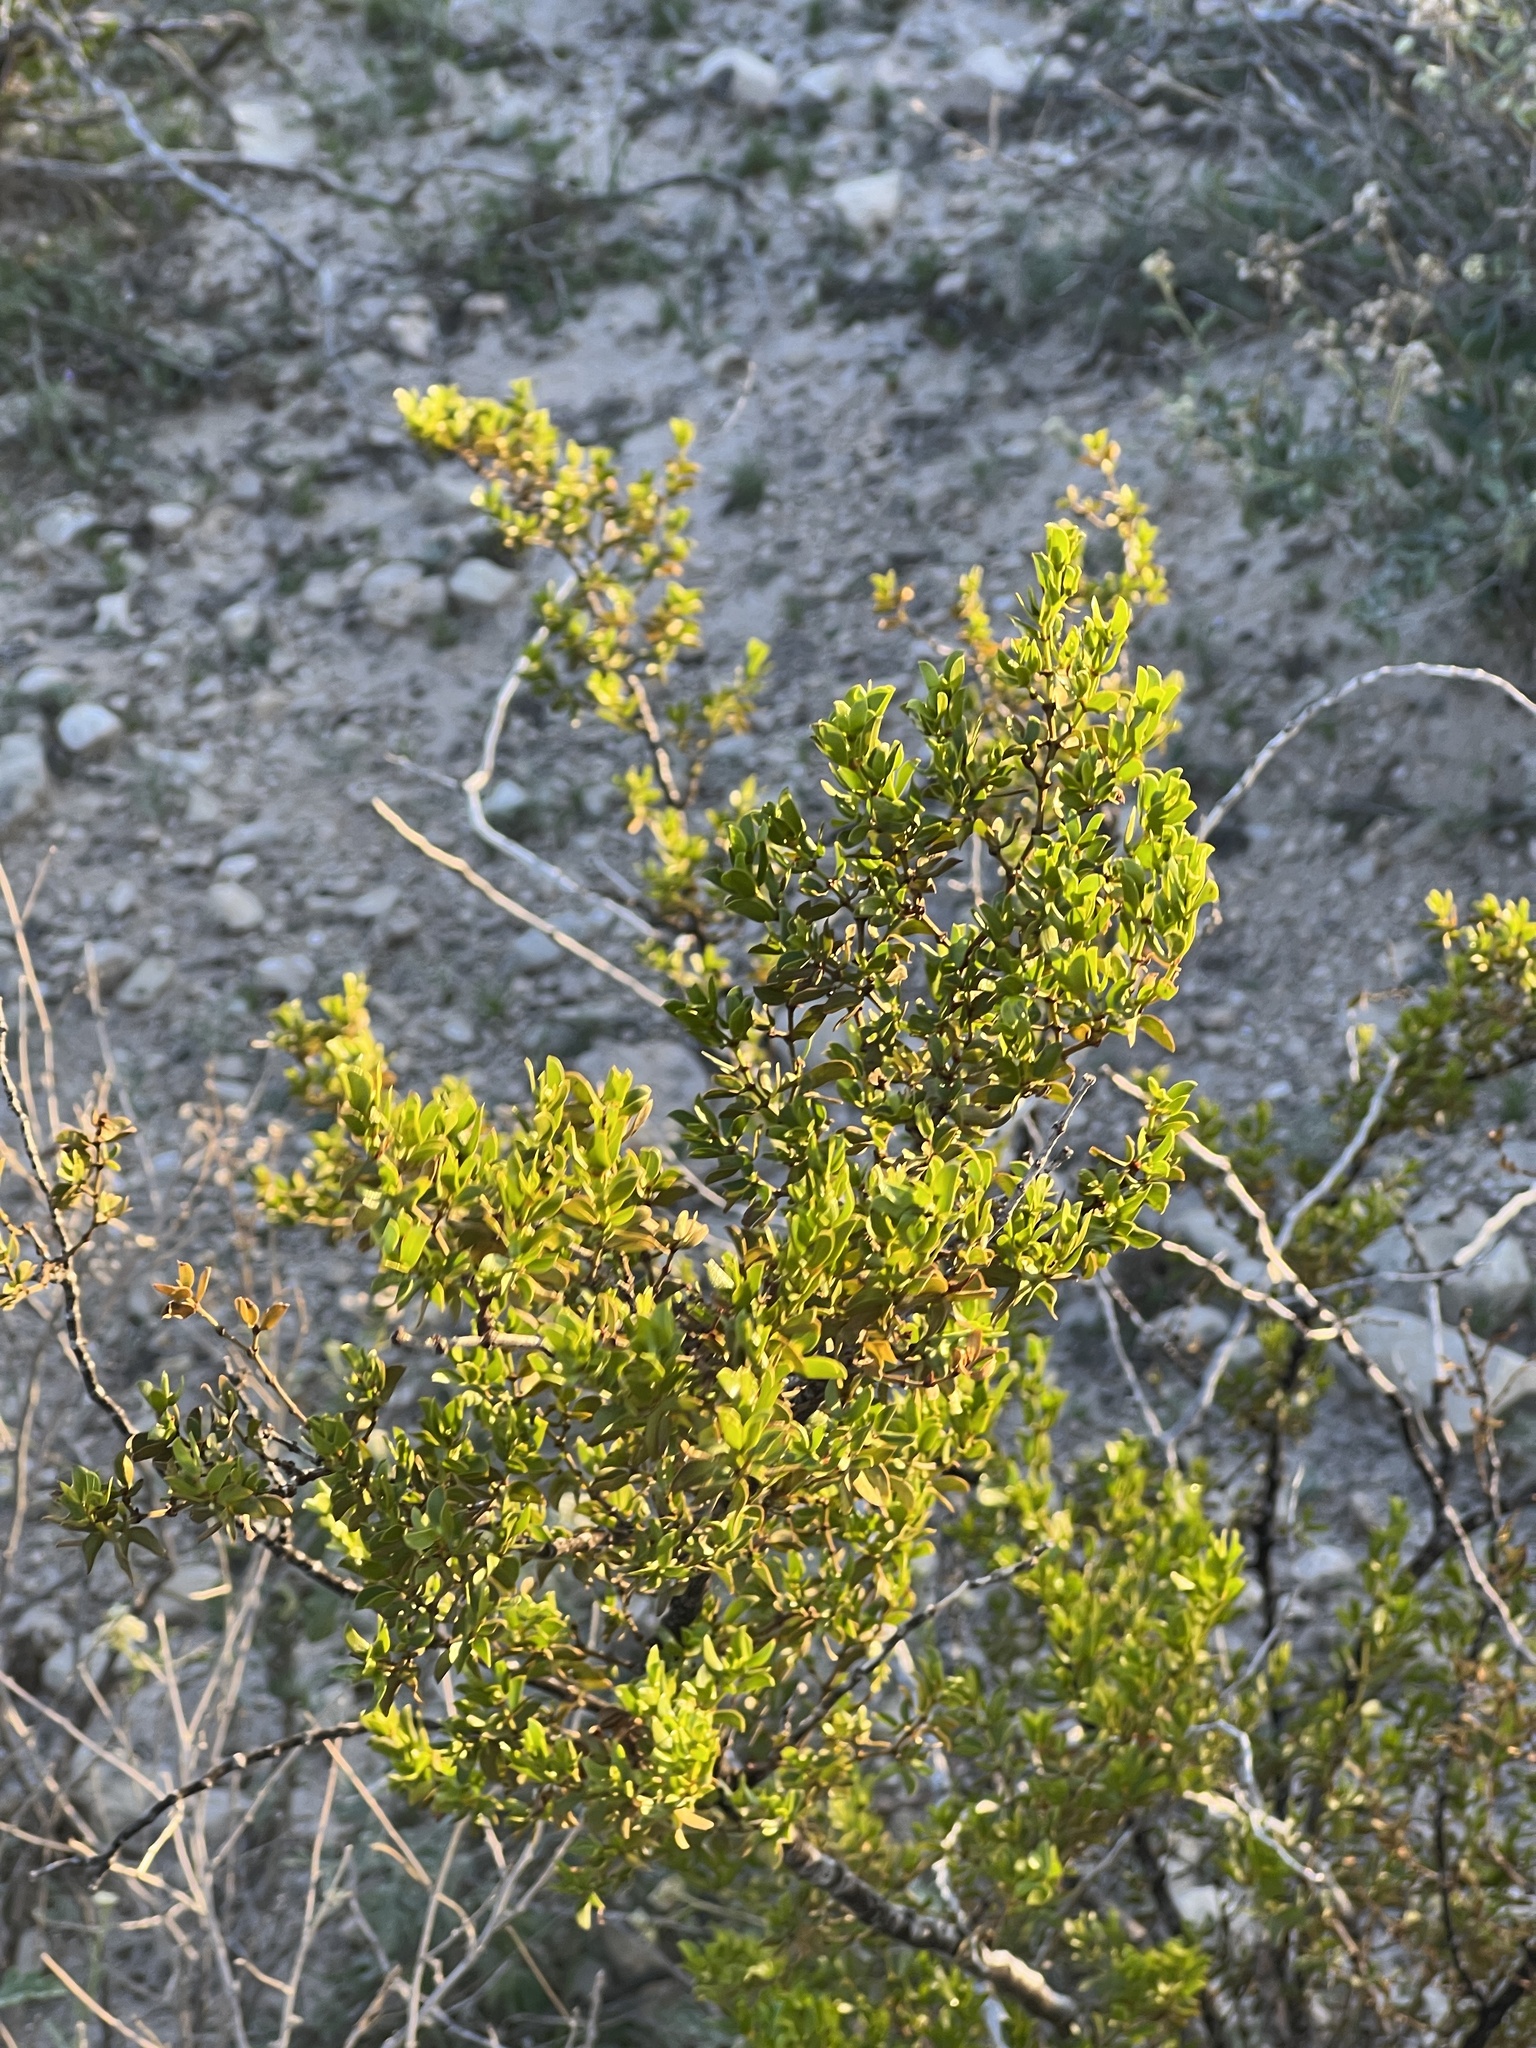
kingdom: Plantae
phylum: Tracheophyta
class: Magnoliopsida
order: Zygophyllales
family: Zygophyllaceae
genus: Larrea
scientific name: Larrea tridentata
